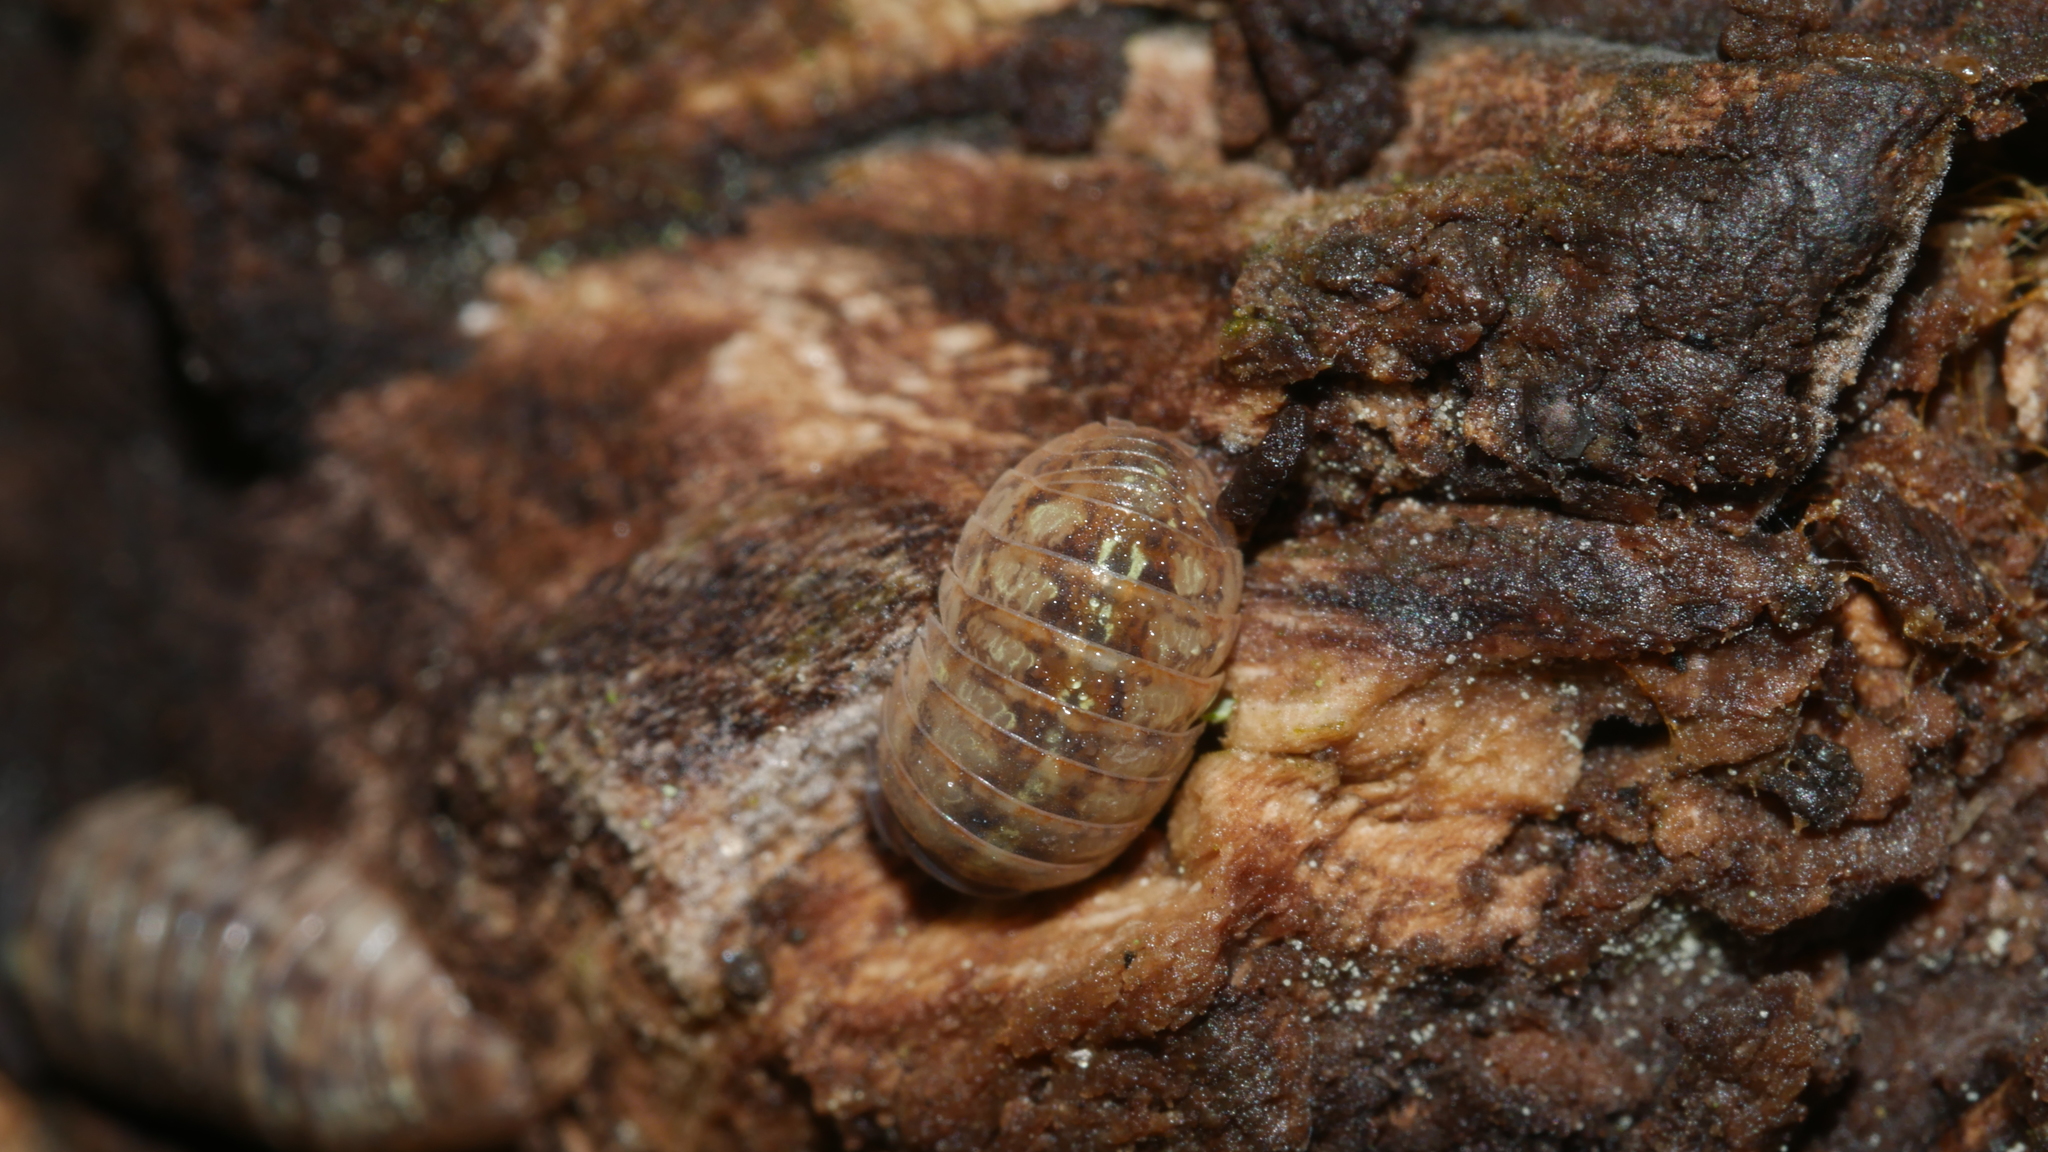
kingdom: Animalia
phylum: Arthropoda
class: Malacostraca
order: Isopoda
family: Armadillidiidae
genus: Armadillidium
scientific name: Armadillidium vulgare
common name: Common pill woodlouse
